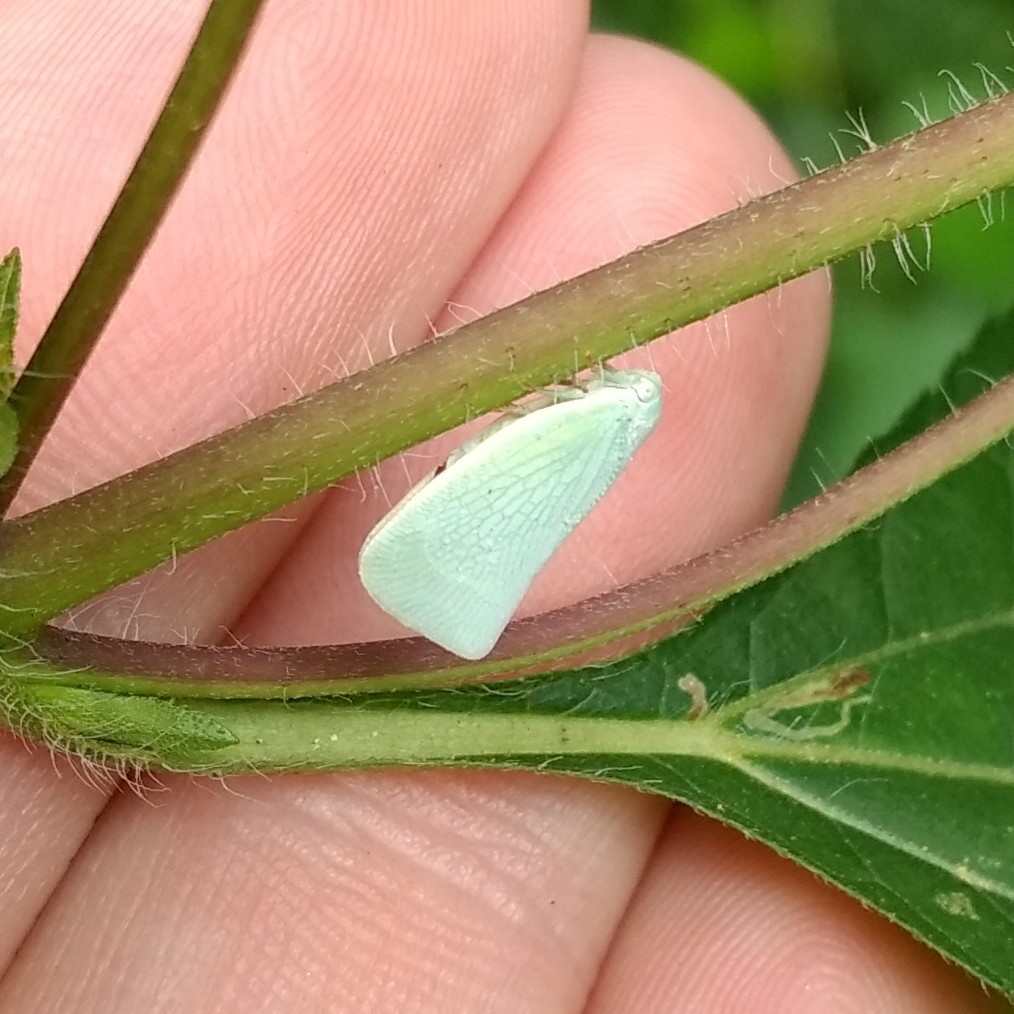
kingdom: Animalia
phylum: Arthropoda
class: Insecta
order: Hemiptera
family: Flatidae
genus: Flatormenis
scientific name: Flatormenis proxima
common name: Northern flatid planthopper
